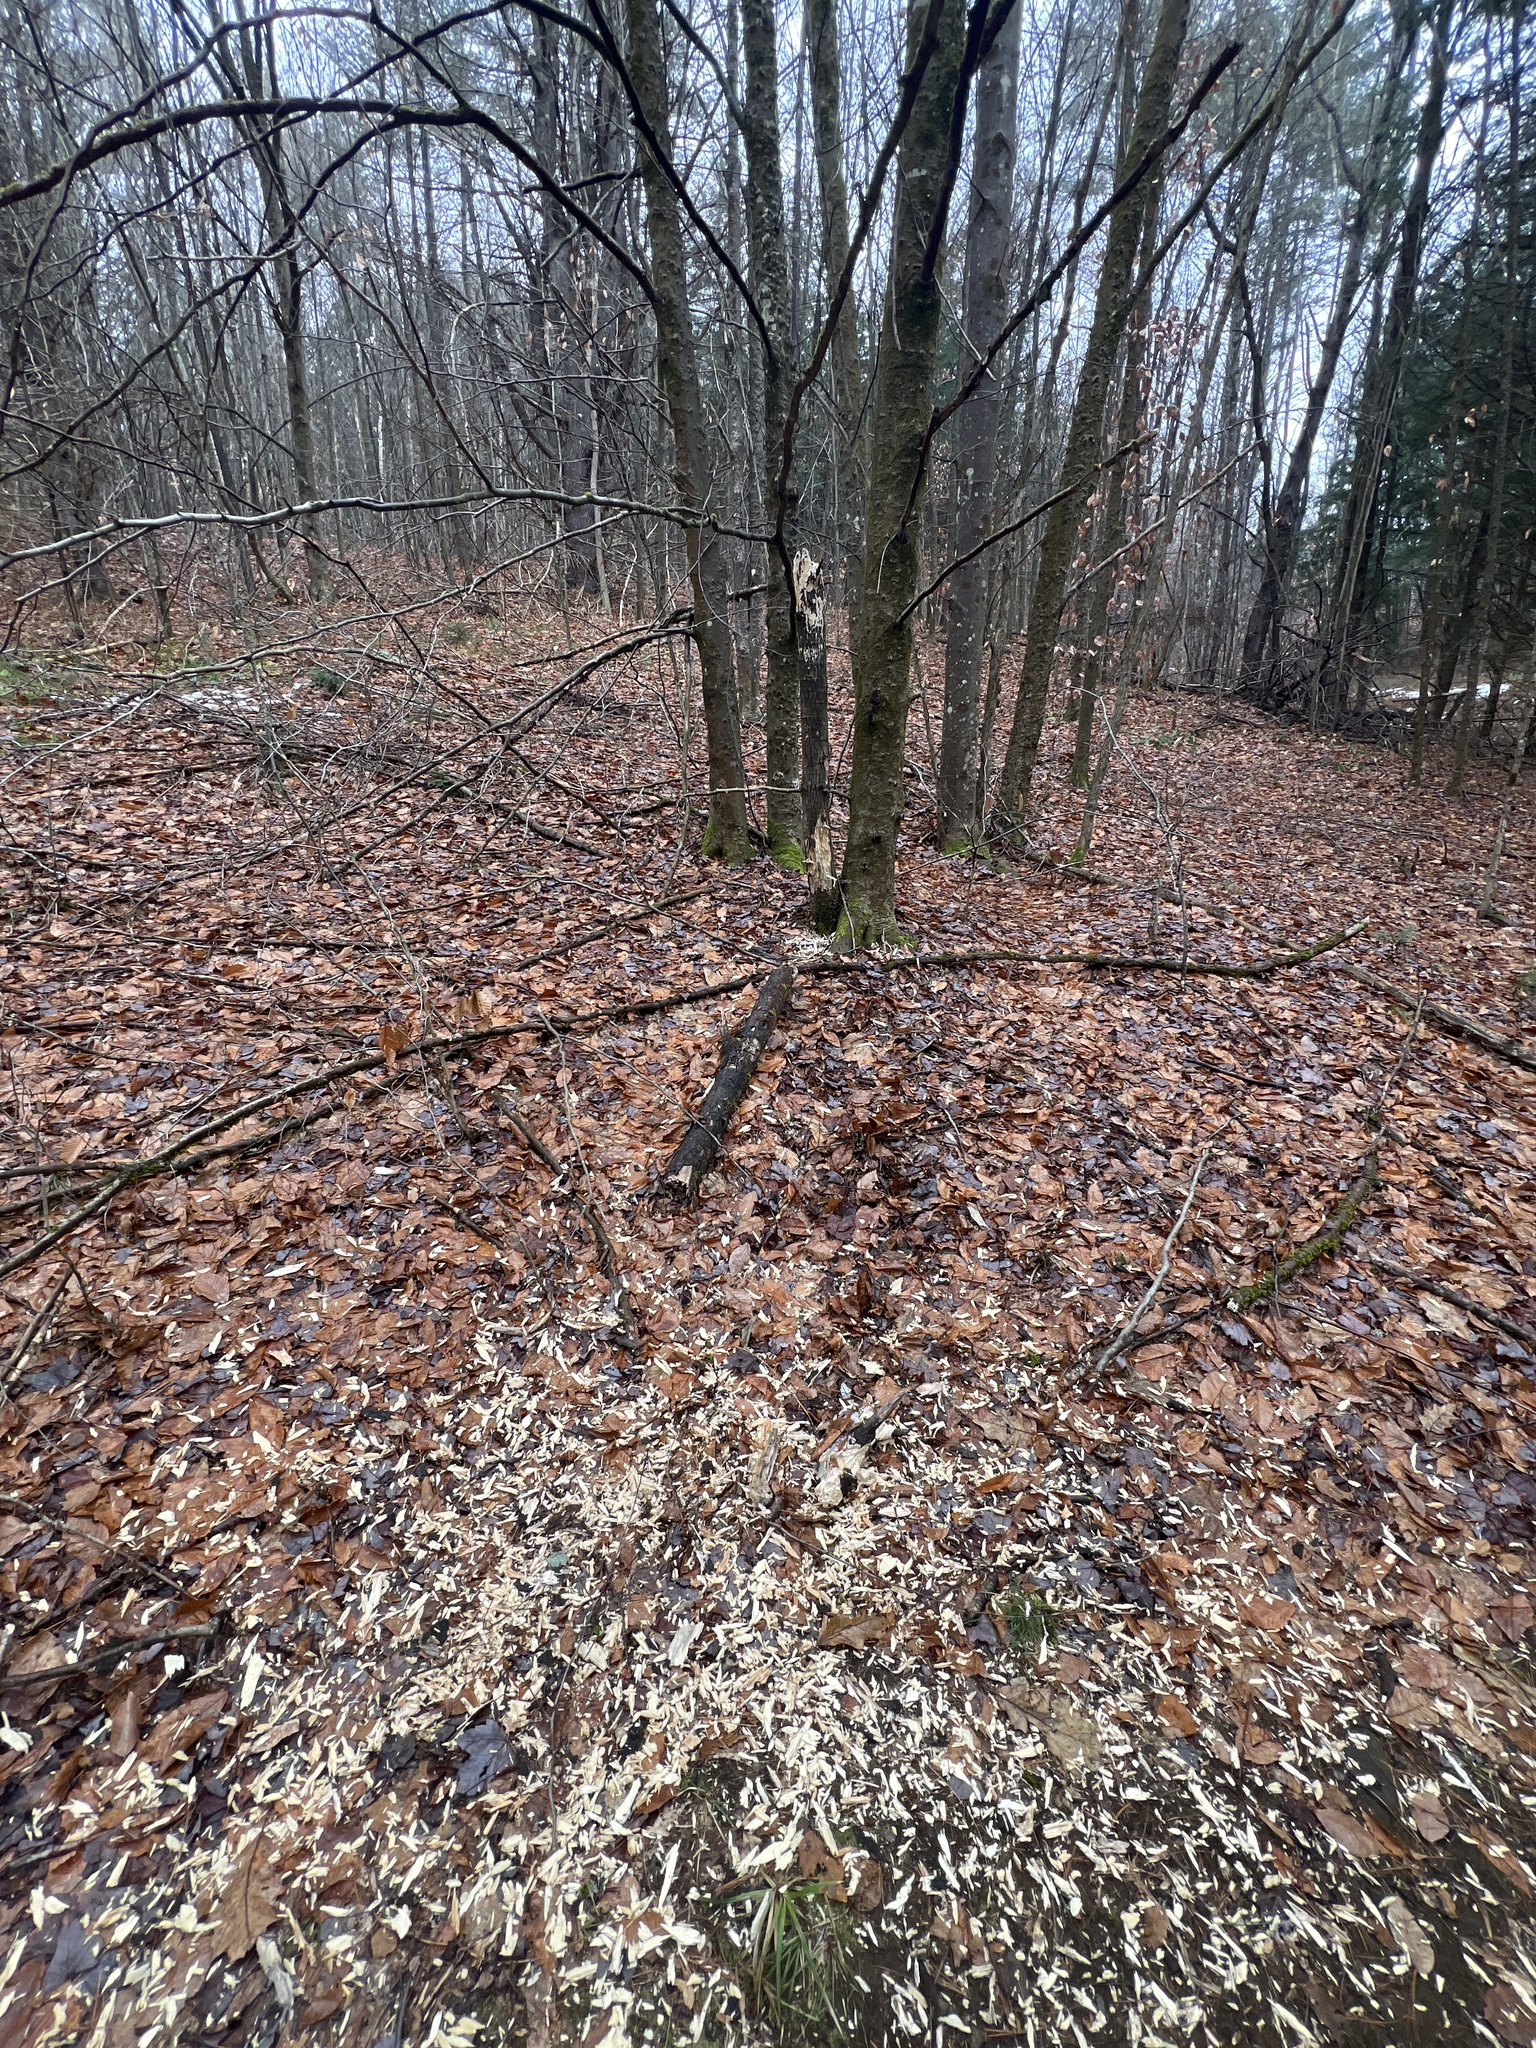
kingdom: Animalia
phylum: Chordata
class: Aves
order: Piciformes
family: Picidae
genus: Dryocopus
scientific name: Dryocopus pileatus
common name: Pileated woodpecker
